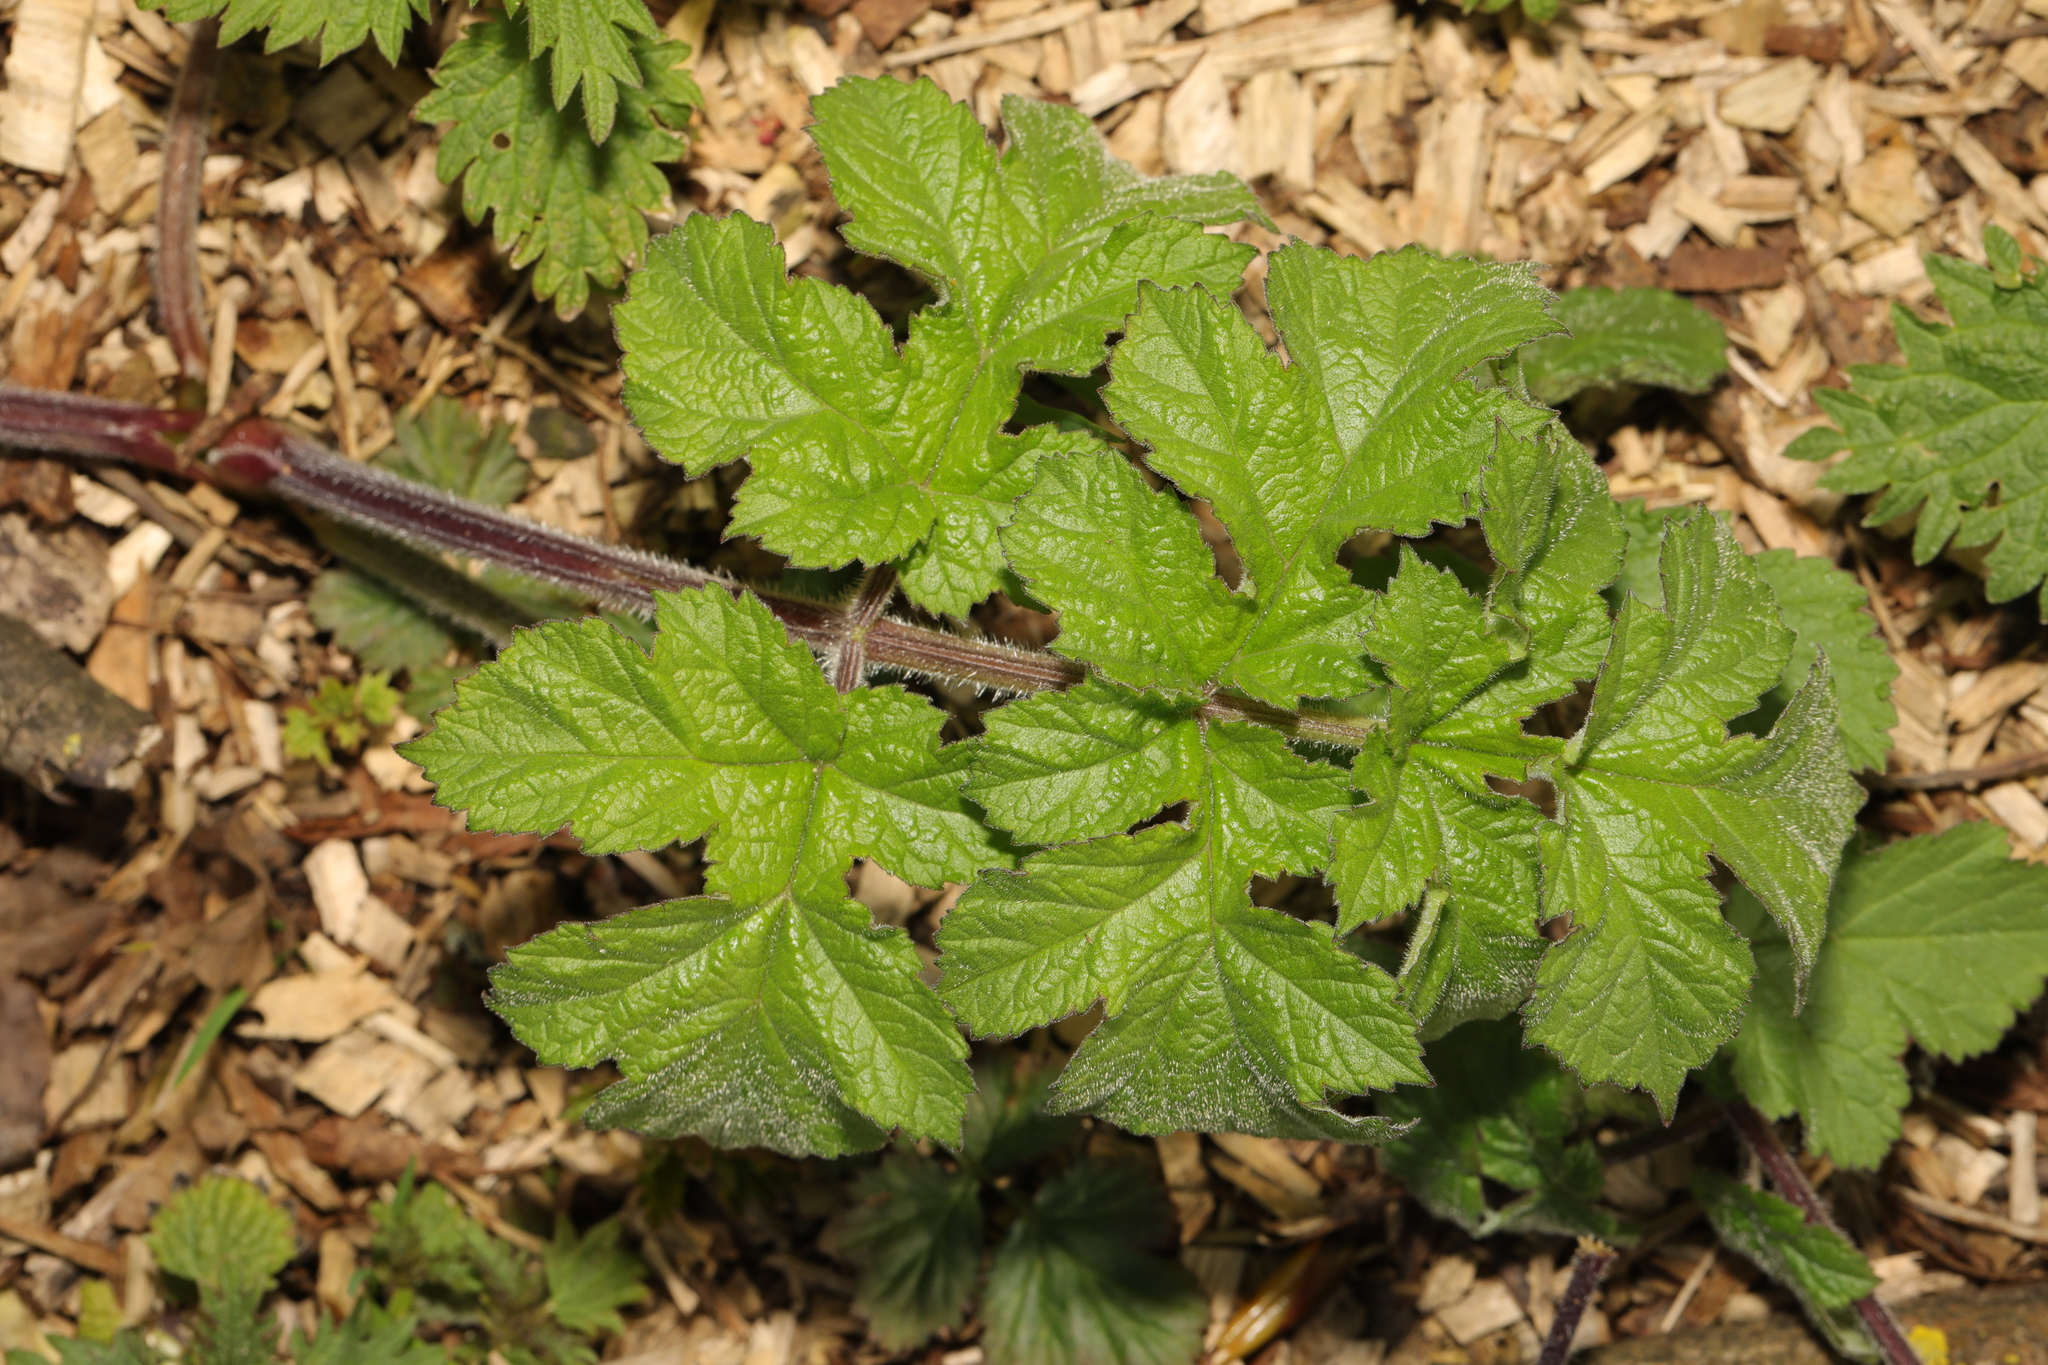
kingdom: Plantae
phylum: Tracheophyta
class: Magnoliopsida
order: Apiales
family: Apiaceae
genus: Heracleum
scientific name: Heracleum sphondylium
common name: Hogweed
